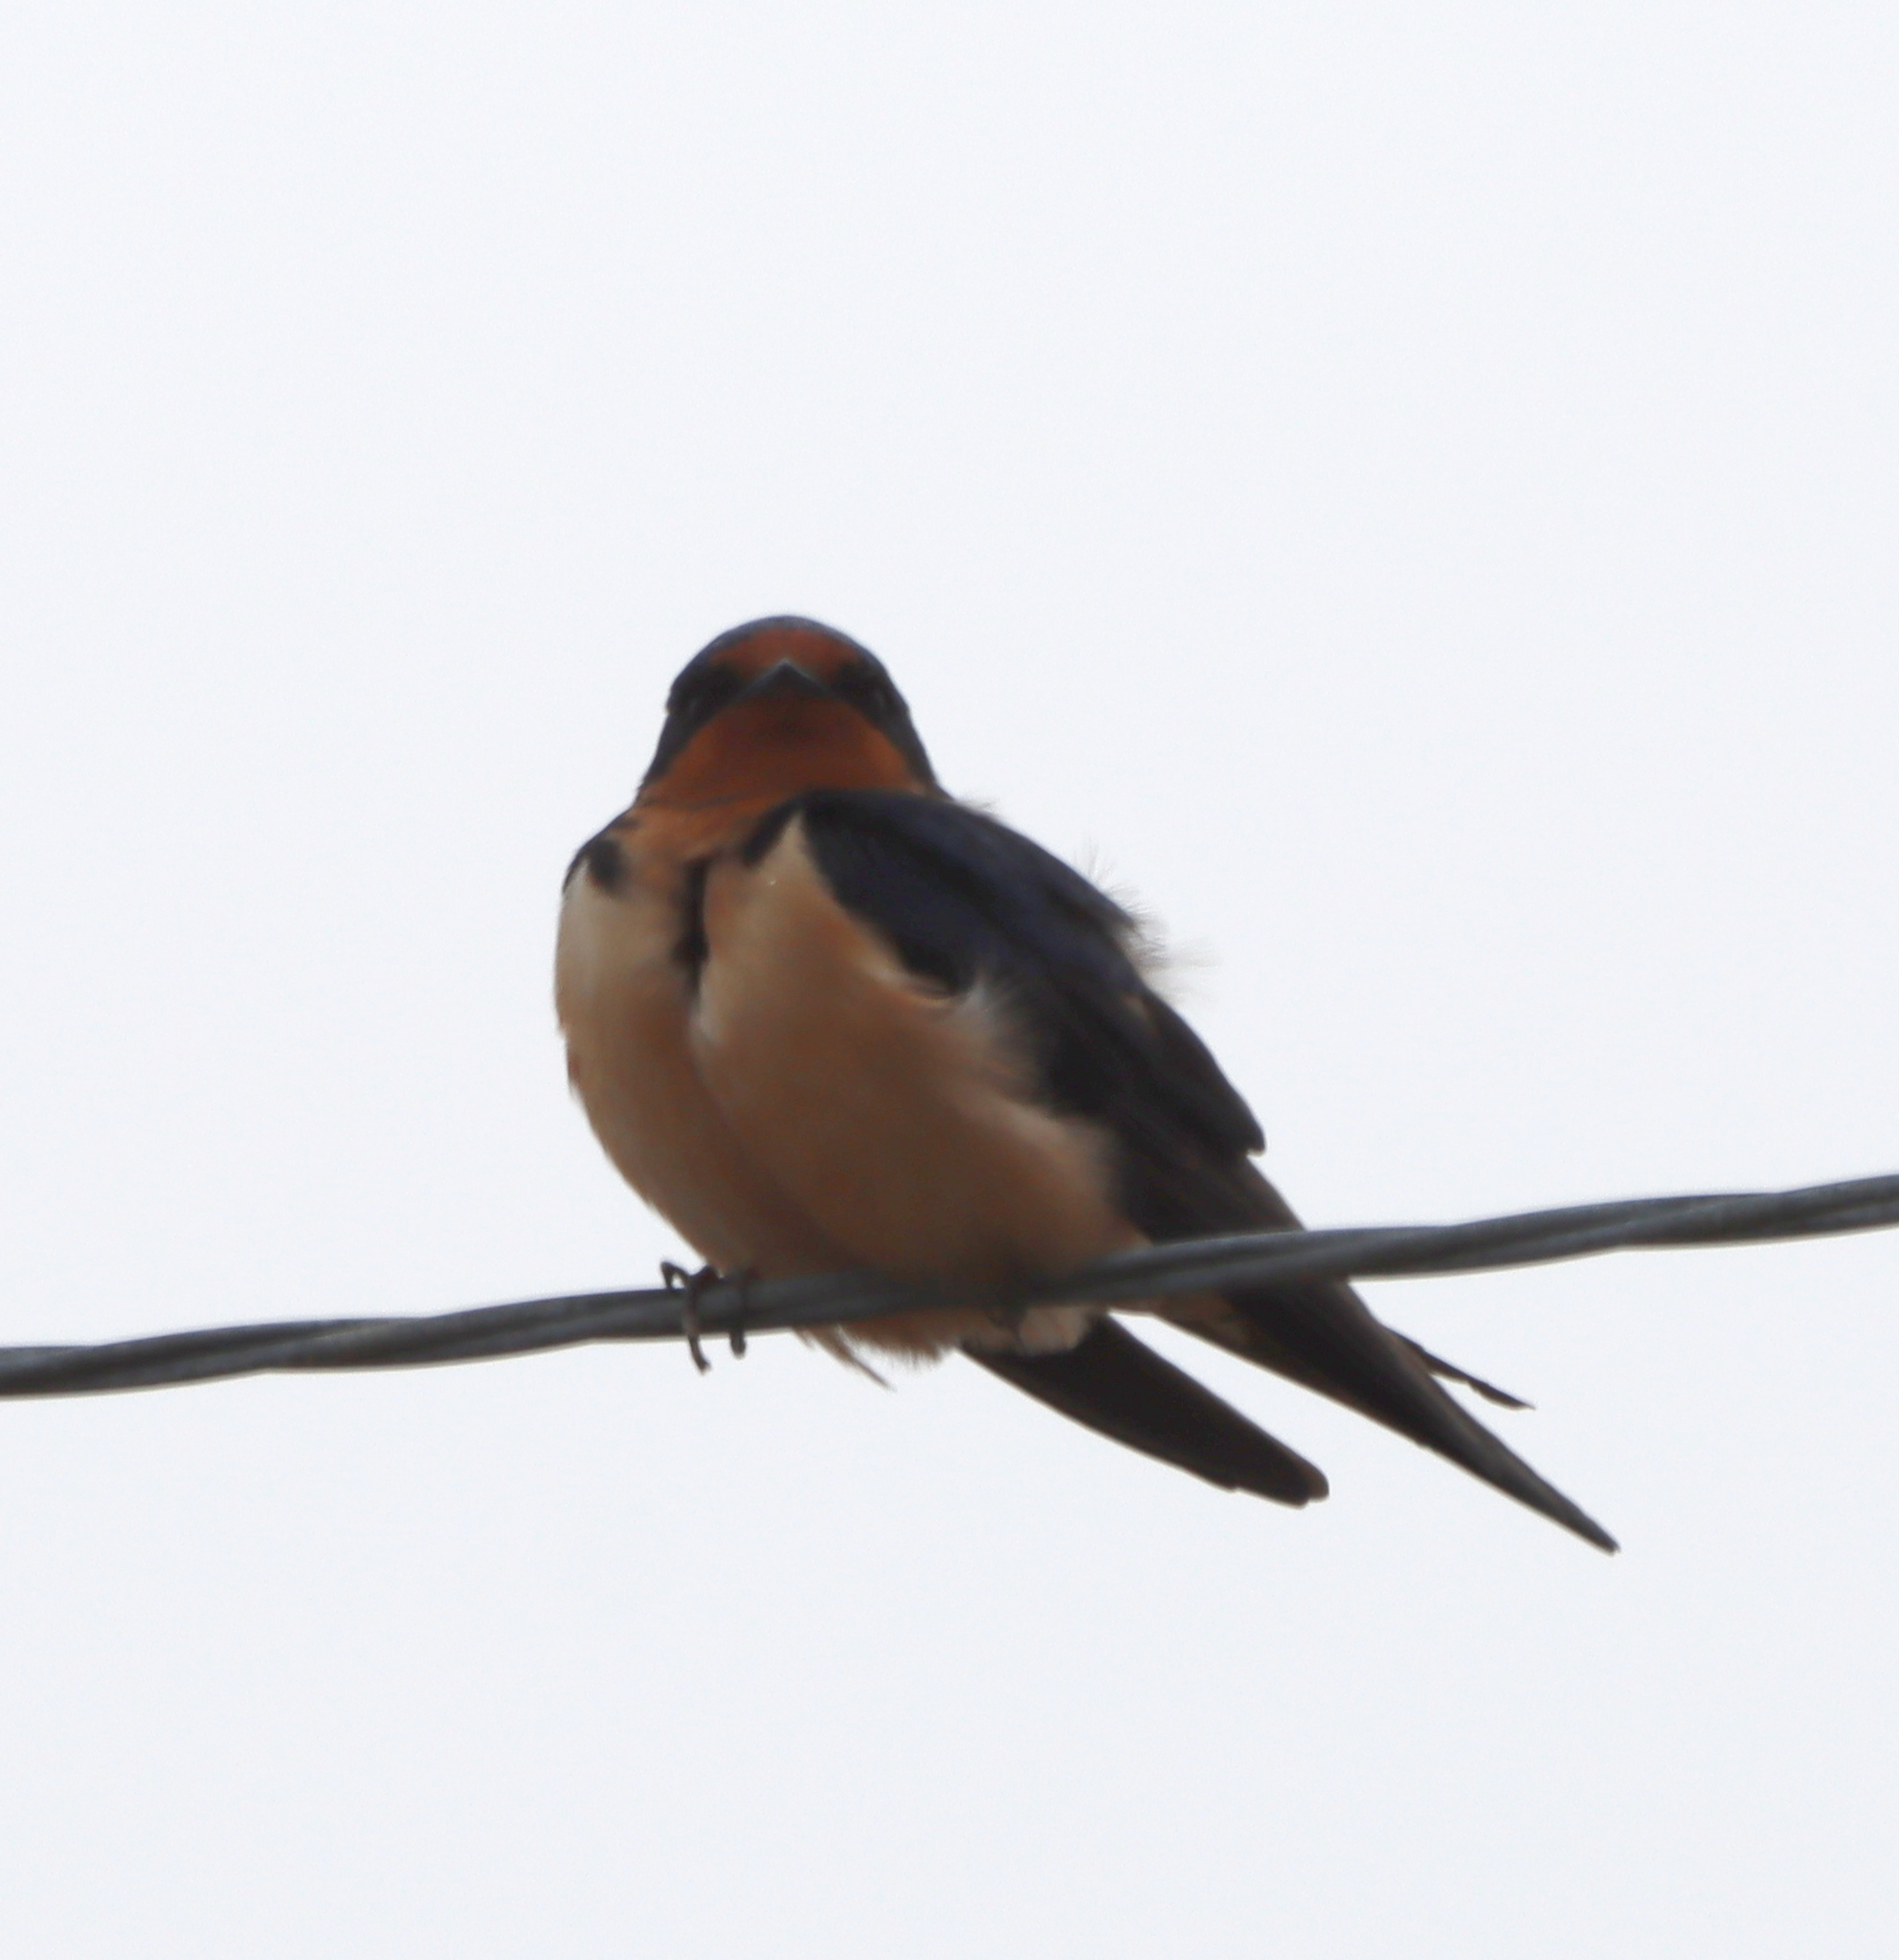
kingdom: Animalia
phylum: Chordata
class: Aves
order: Passeriformes
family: Hirundinidae
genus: Hirundo
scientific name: Hirundo rustica
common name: Barn swallow
